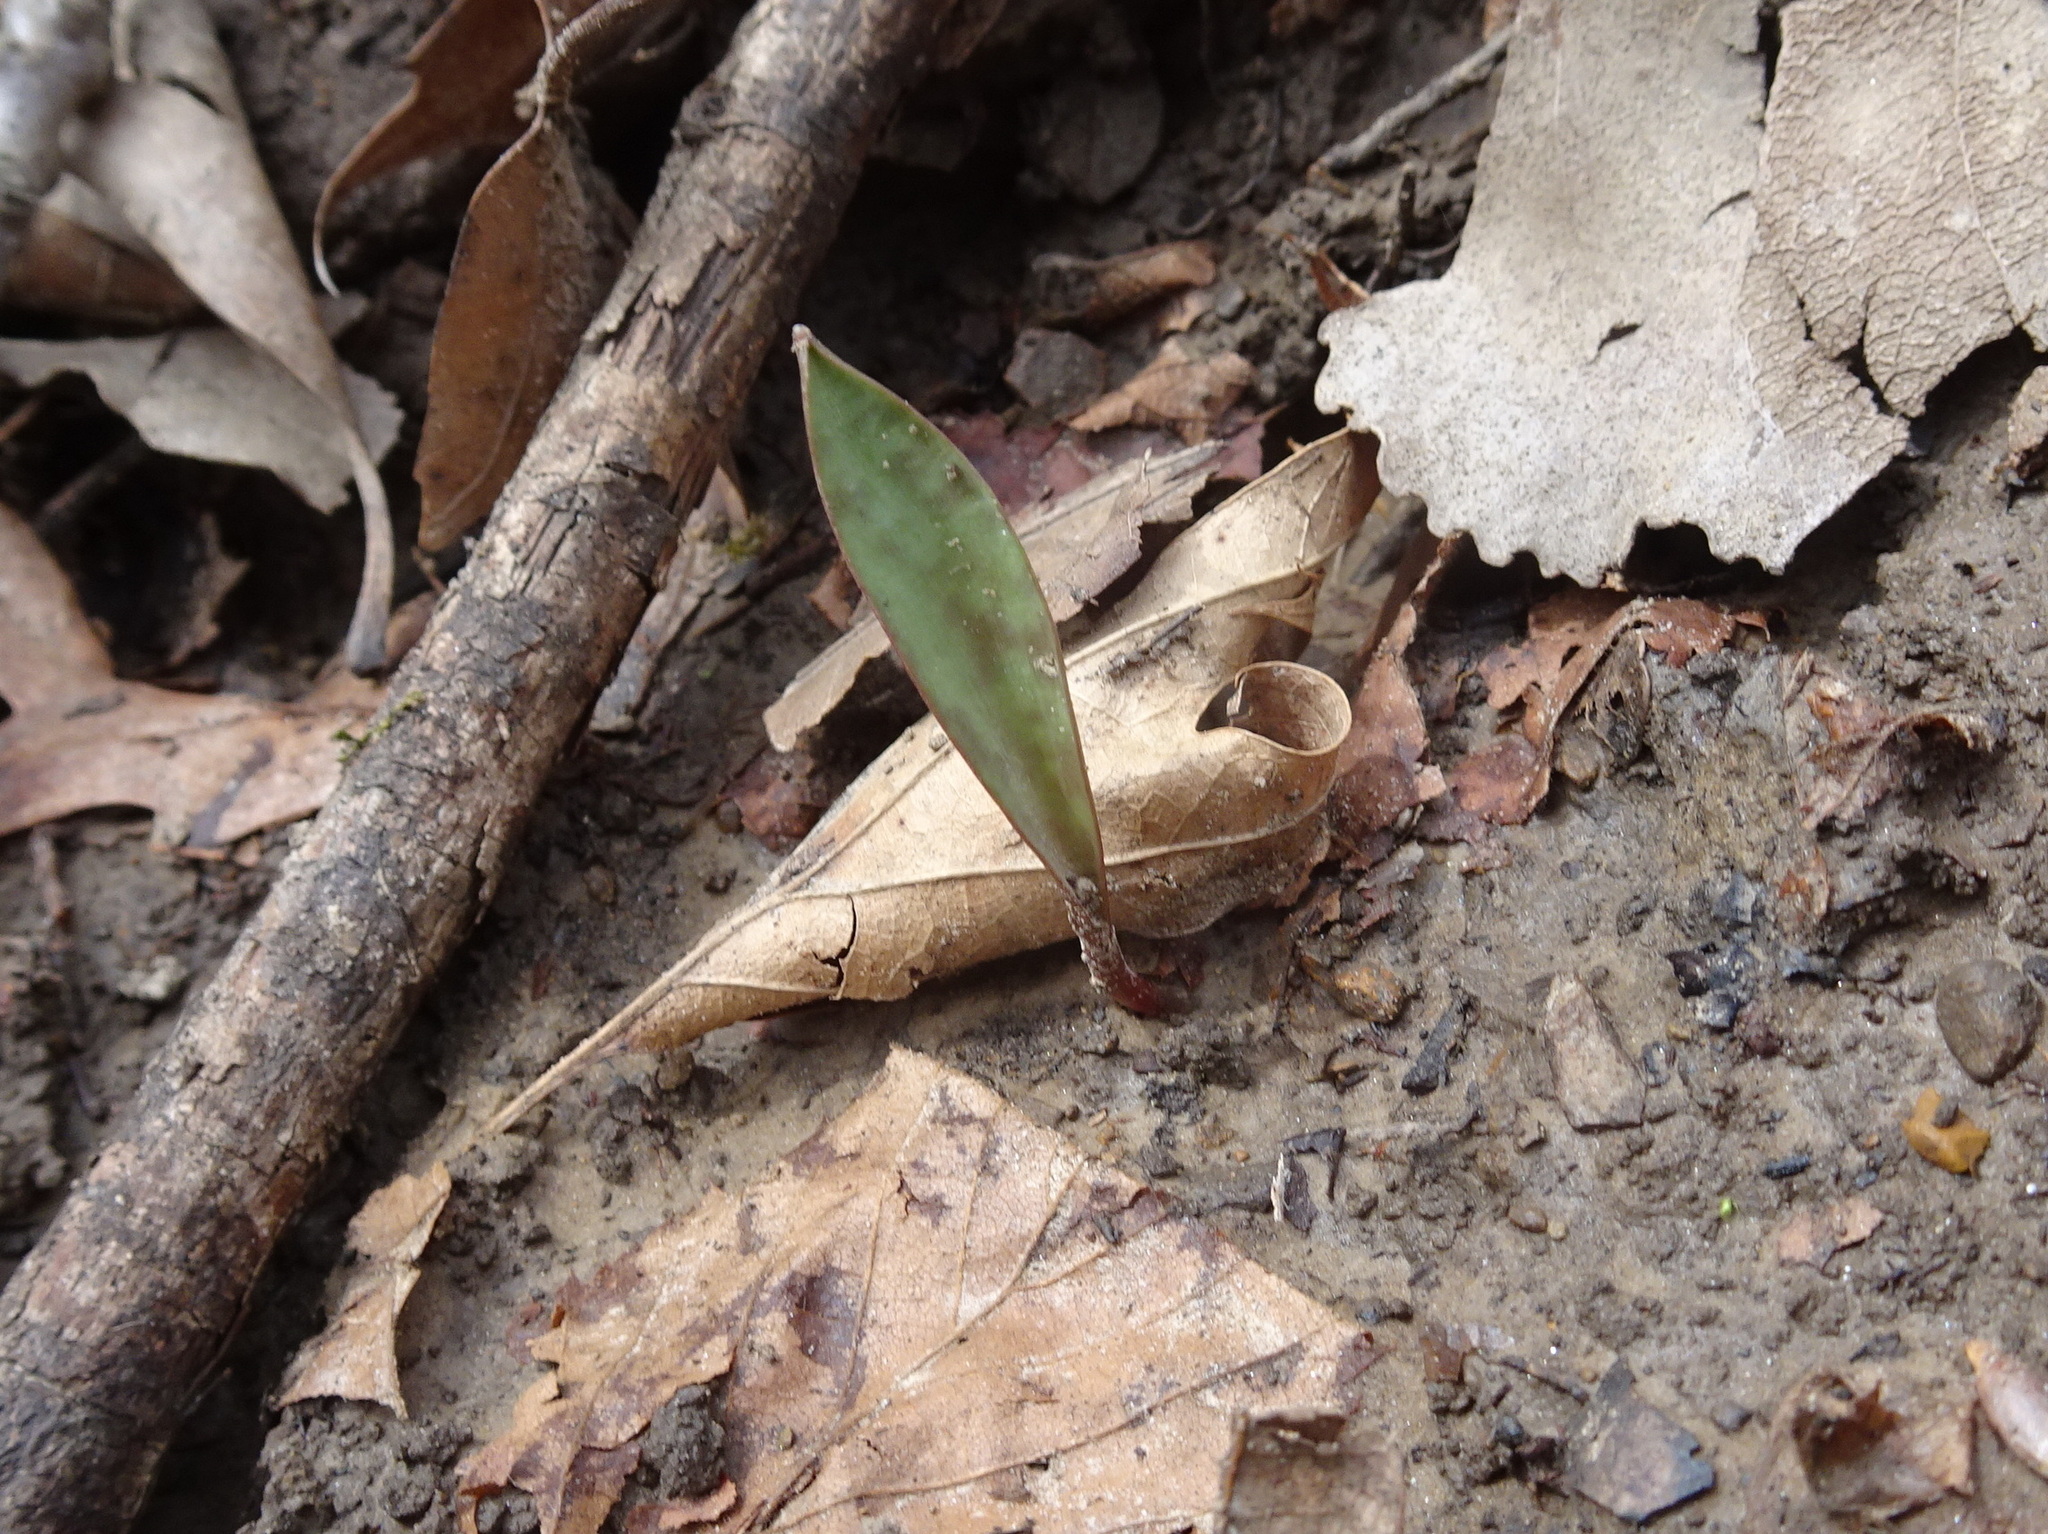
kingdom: Plantae
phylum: Tracheophyta
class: Liliopsida
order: Liliales
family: Liliaceae
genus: Erythronium
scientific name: Erythronium albidum
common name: White trout-lily
